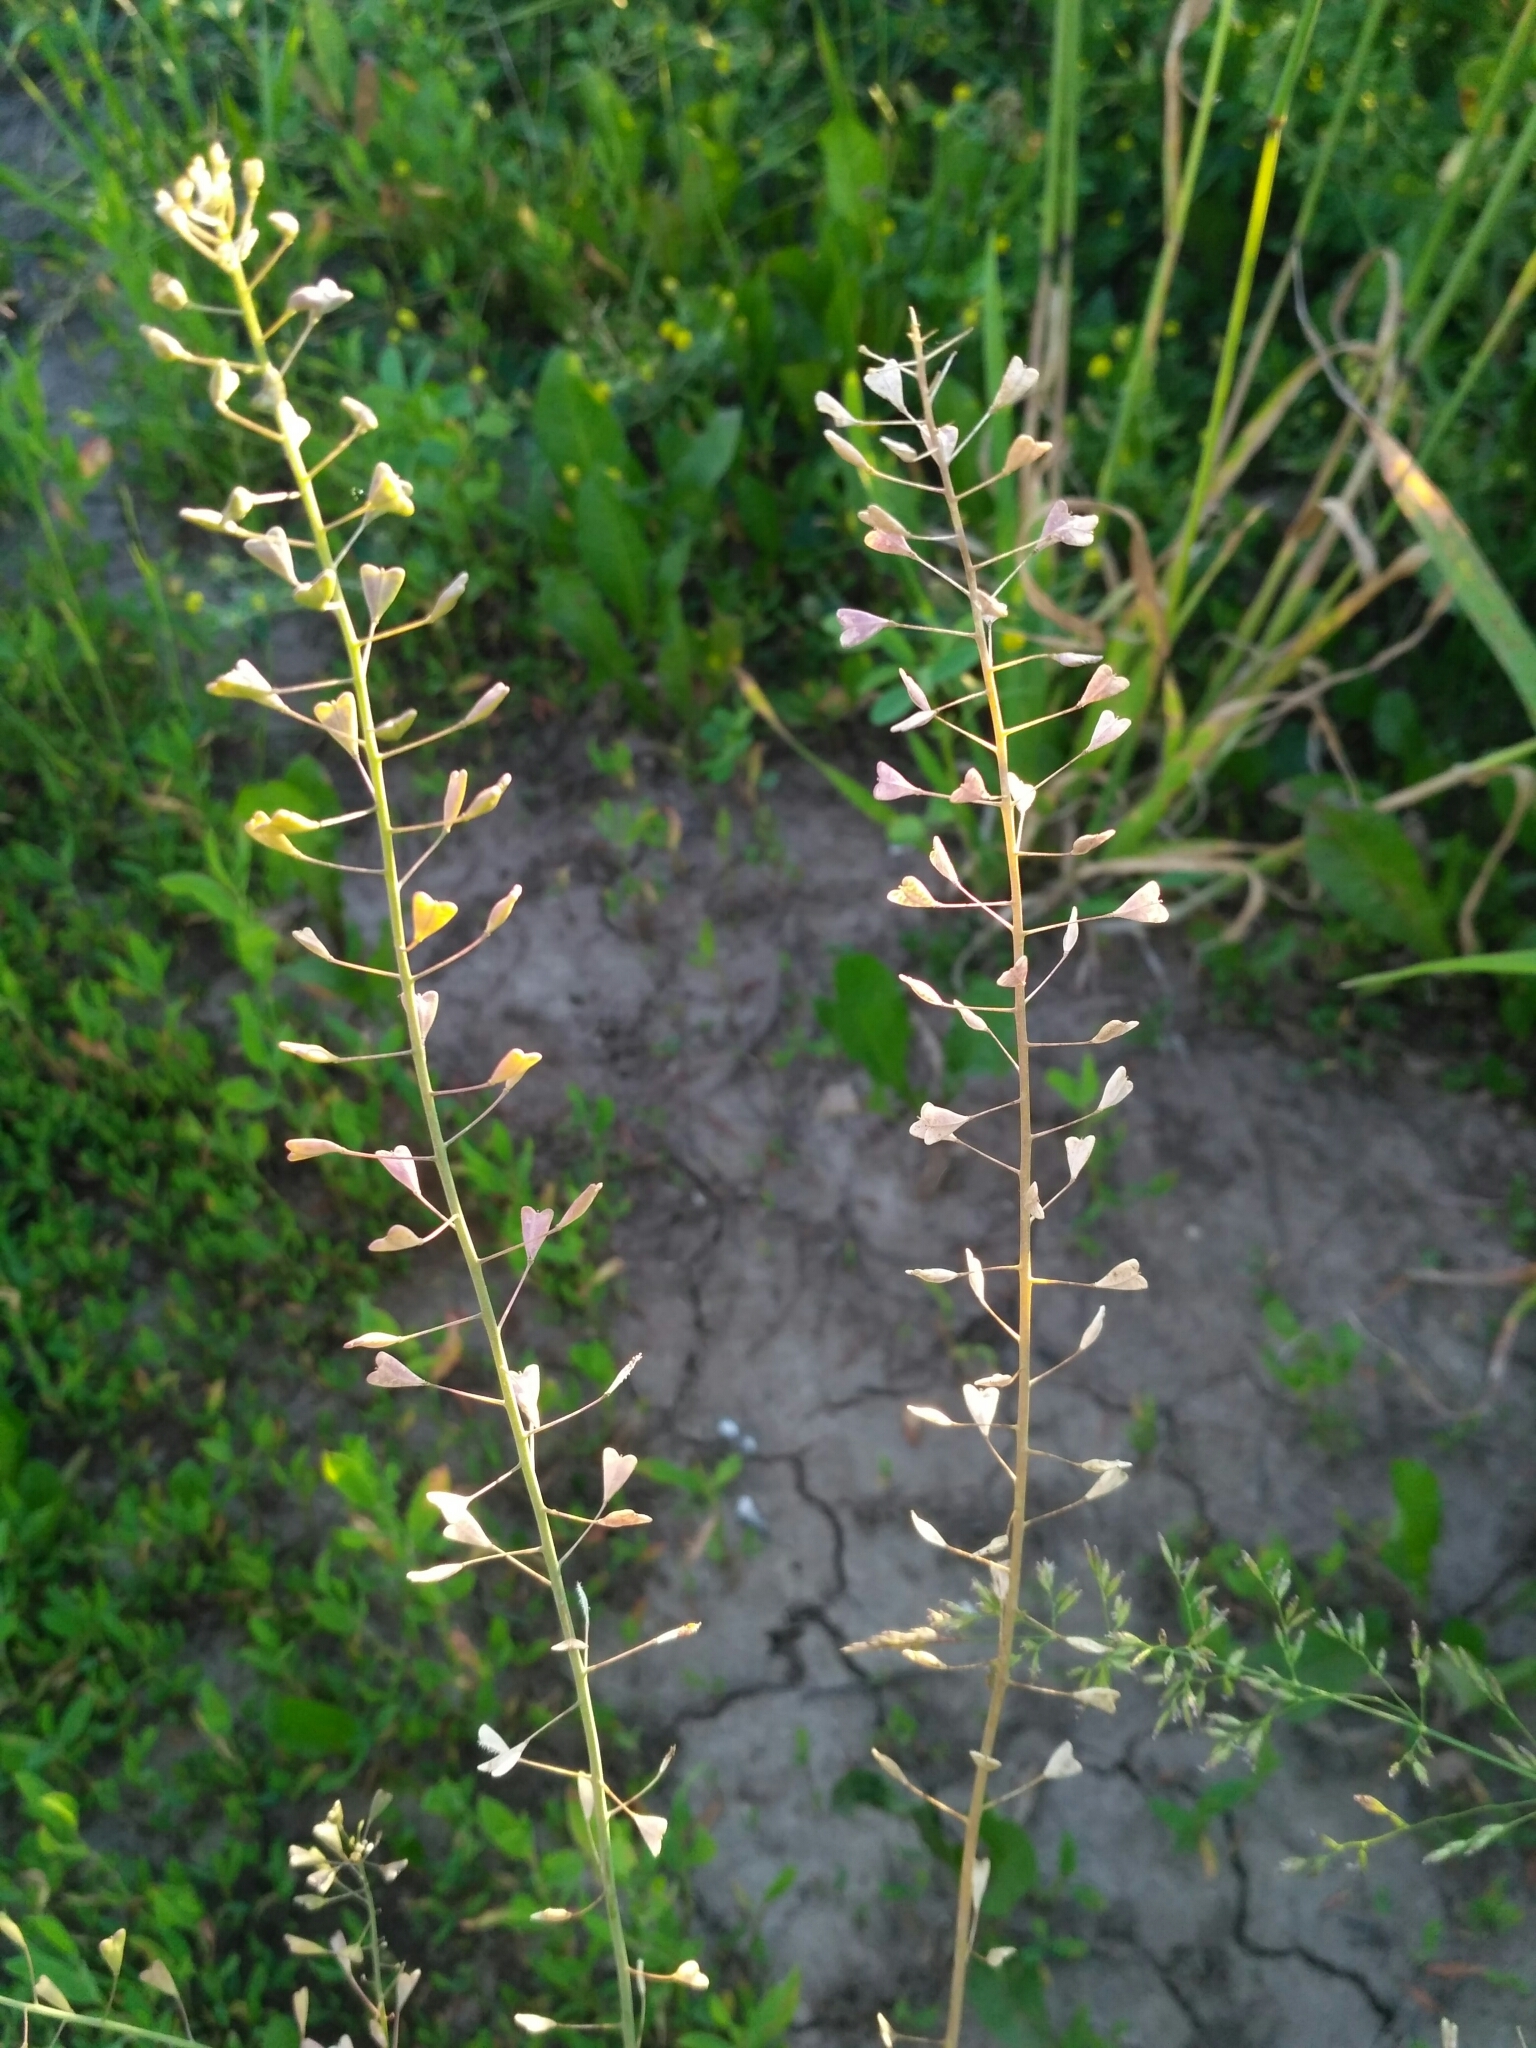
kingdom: Plantae
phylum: Tracheophyta
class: Magnoliopsida
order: Brassicales
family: Brassicaceae
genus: Capsella
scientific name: Capsella bursa-pastoris
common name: Shepherd's purse
